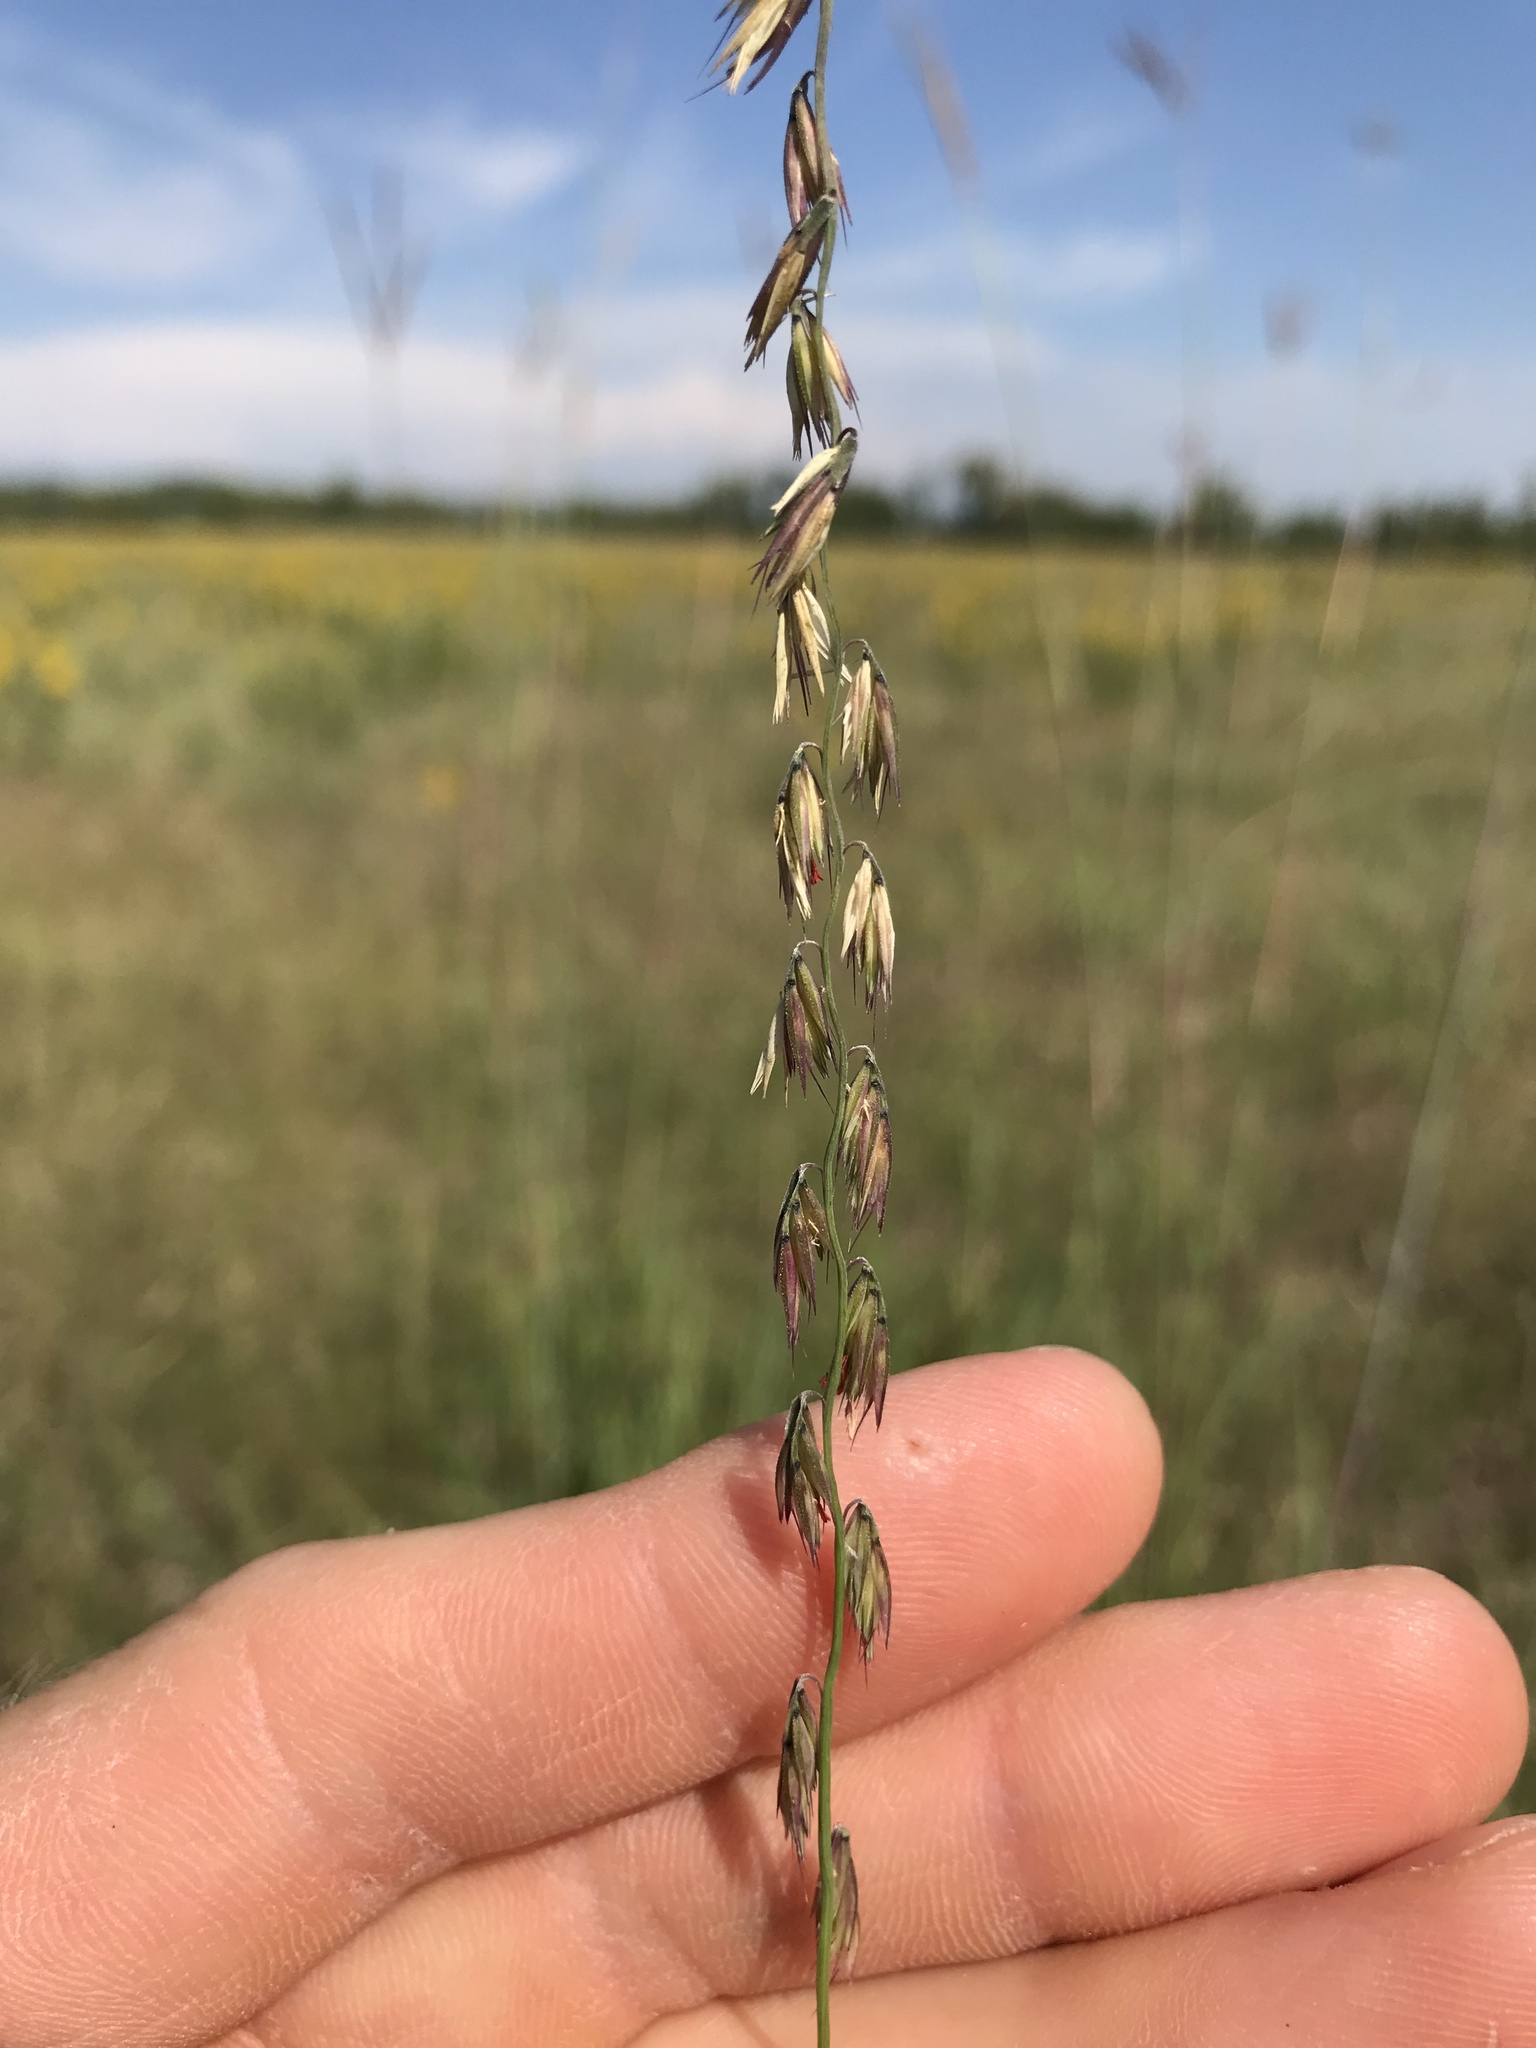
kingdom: Plantae
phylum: Tracheophyta
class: Liliopsida
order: Poales
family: Poaceae
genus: Bouteloua
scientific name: Bouteloua curtipendula
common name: Side-oats grama
